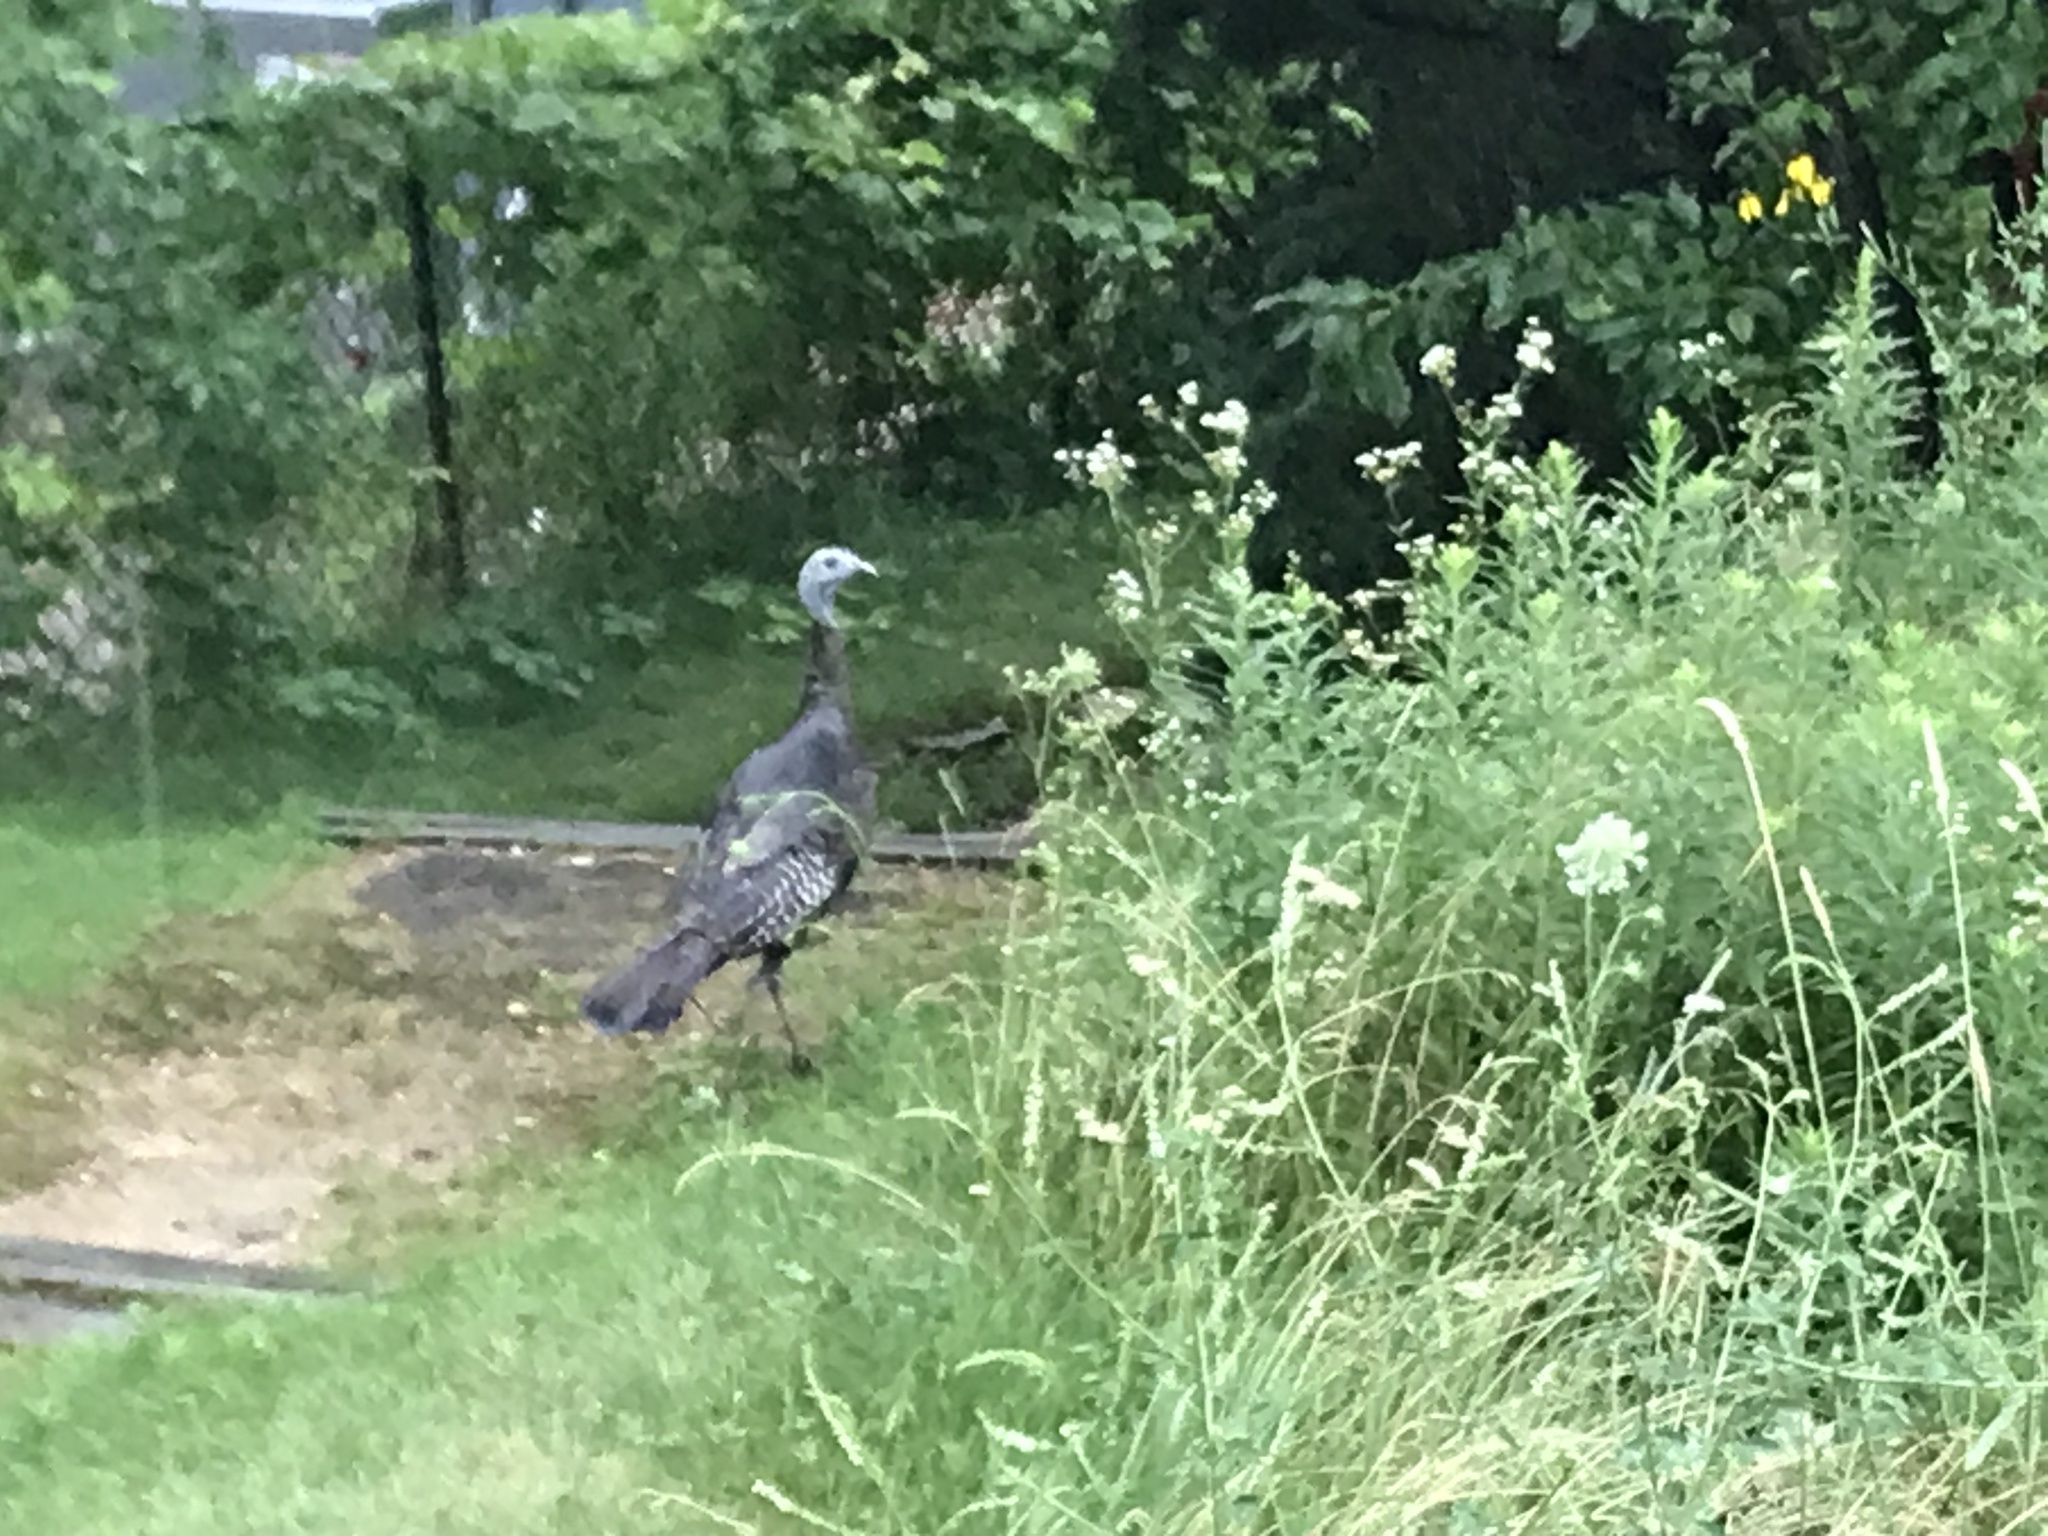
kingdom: Animalia
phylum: Chordata
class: Aves
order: Galliformes
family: Phasianidae
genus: Meleagris
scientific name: Meleagris gallopavo
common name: Wild turkey
